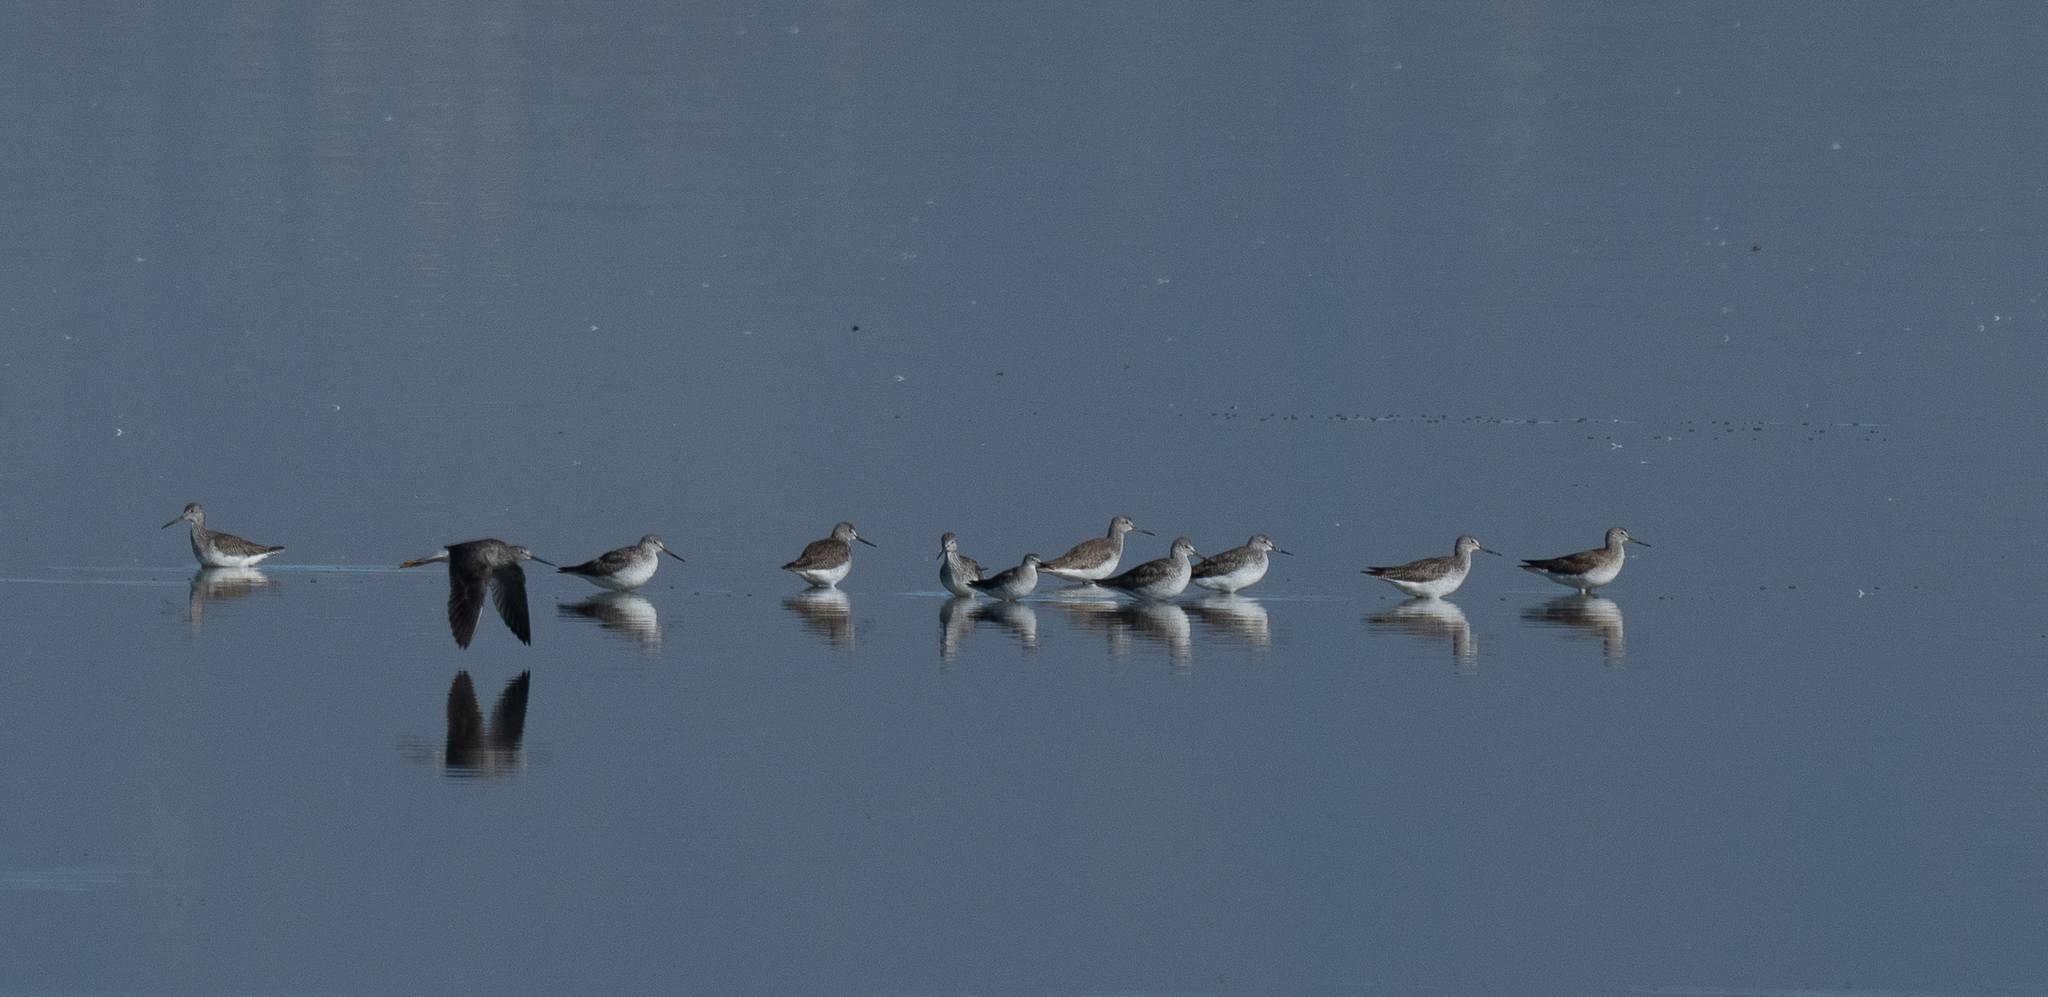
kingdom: Animalia
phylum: Chordata
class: Aves
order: Charadriiformes
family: Scolopacidae
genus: Tringa
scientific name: Tringa flavipes
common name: Lesser yellowlegs
